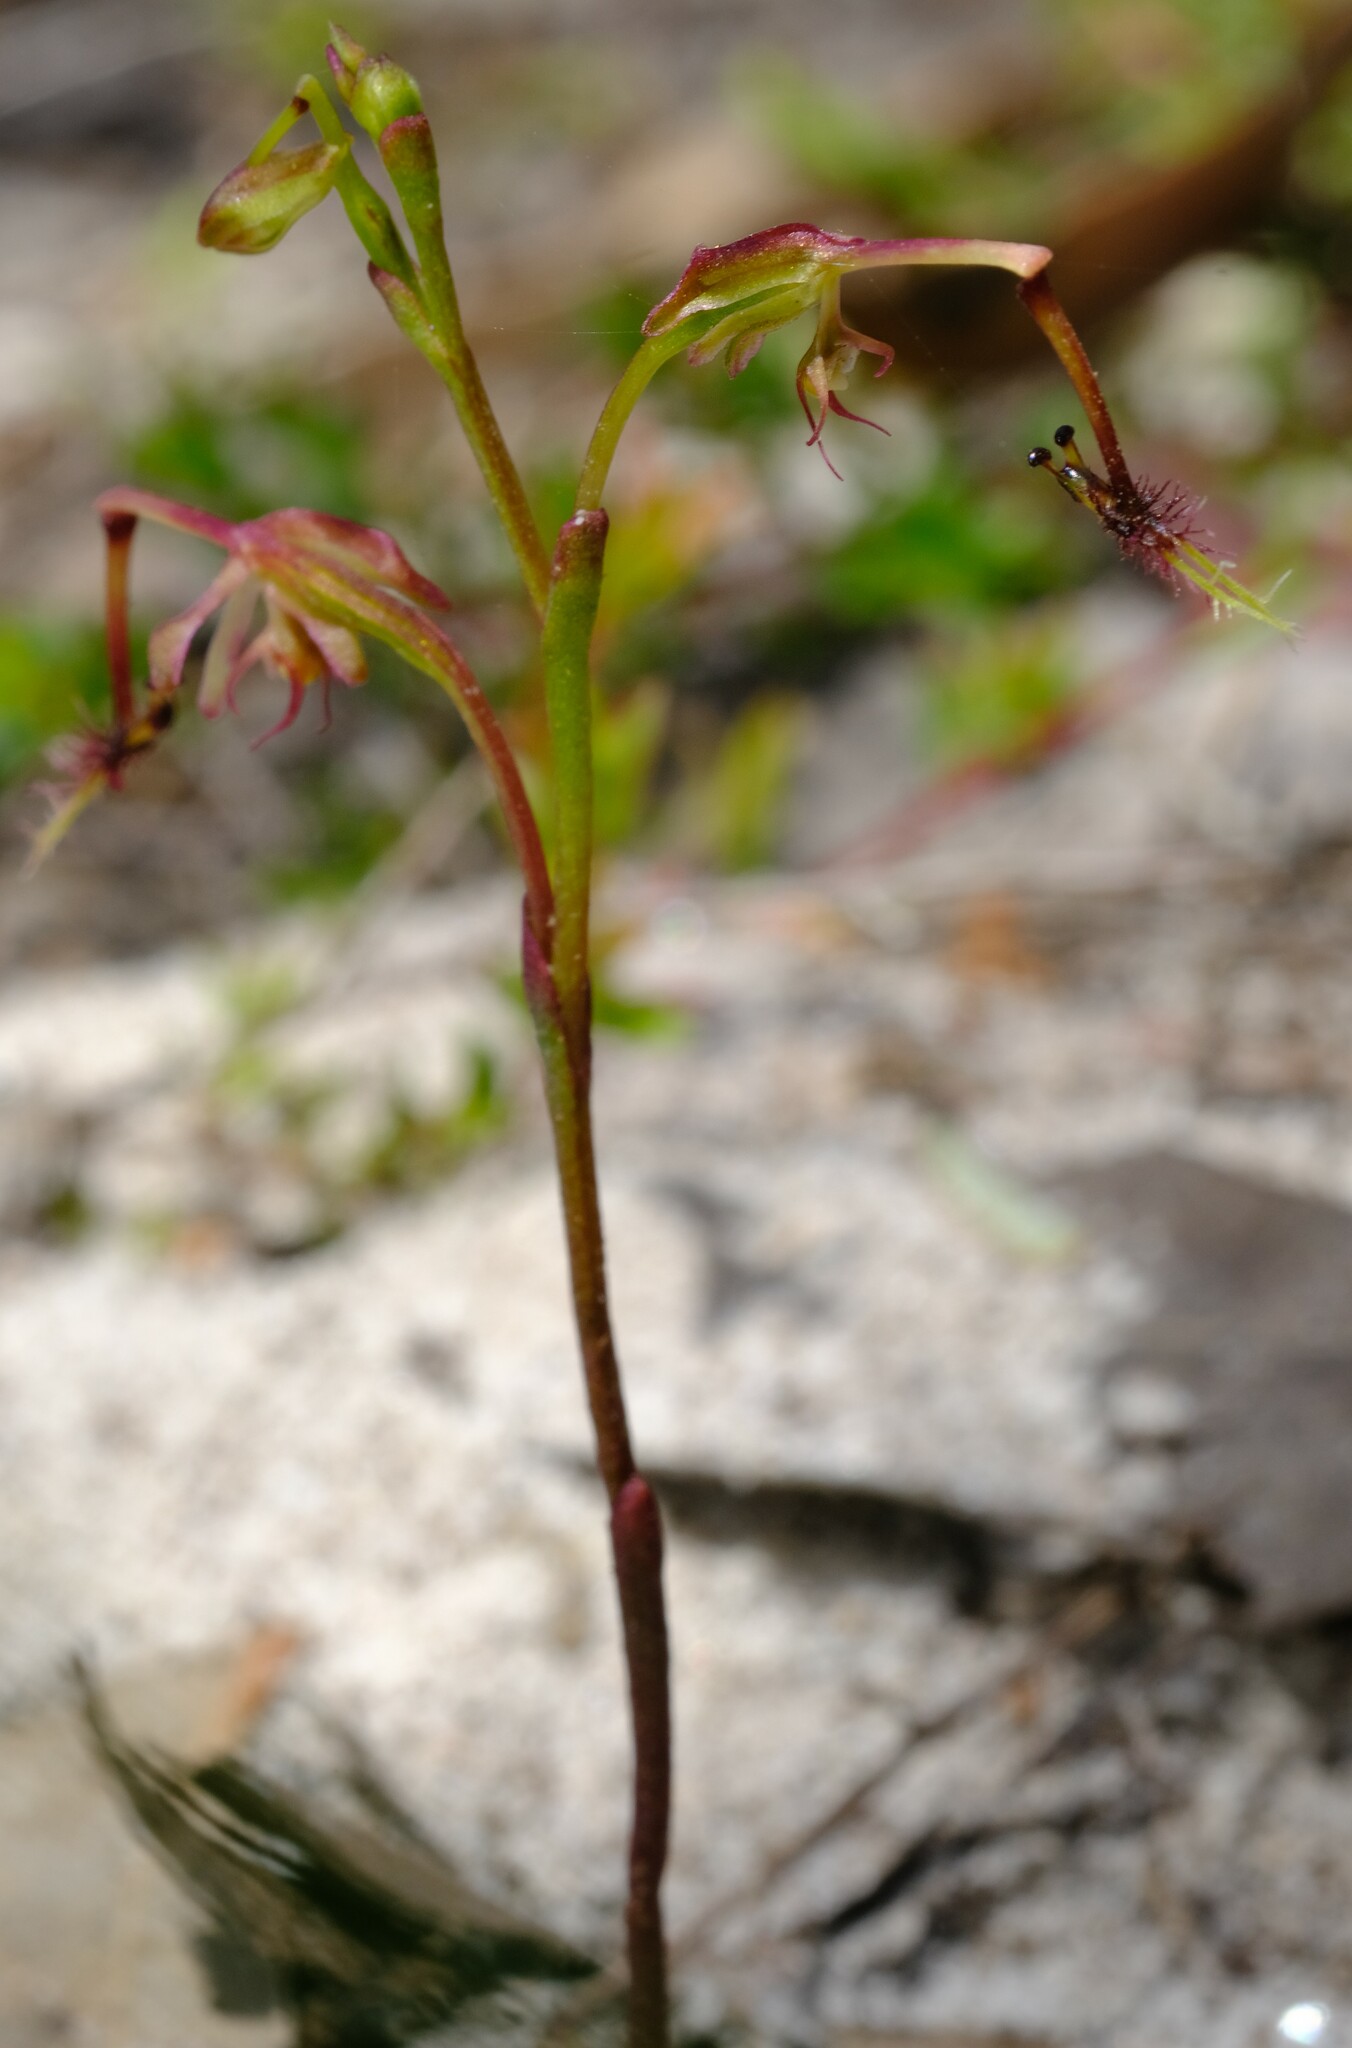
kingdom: Plantae
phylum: Tracheophyta
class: Liliopsida
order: Asparagales
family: Orchidaceae
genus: Arthrochilus
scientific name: Arthrochilus huntianus
